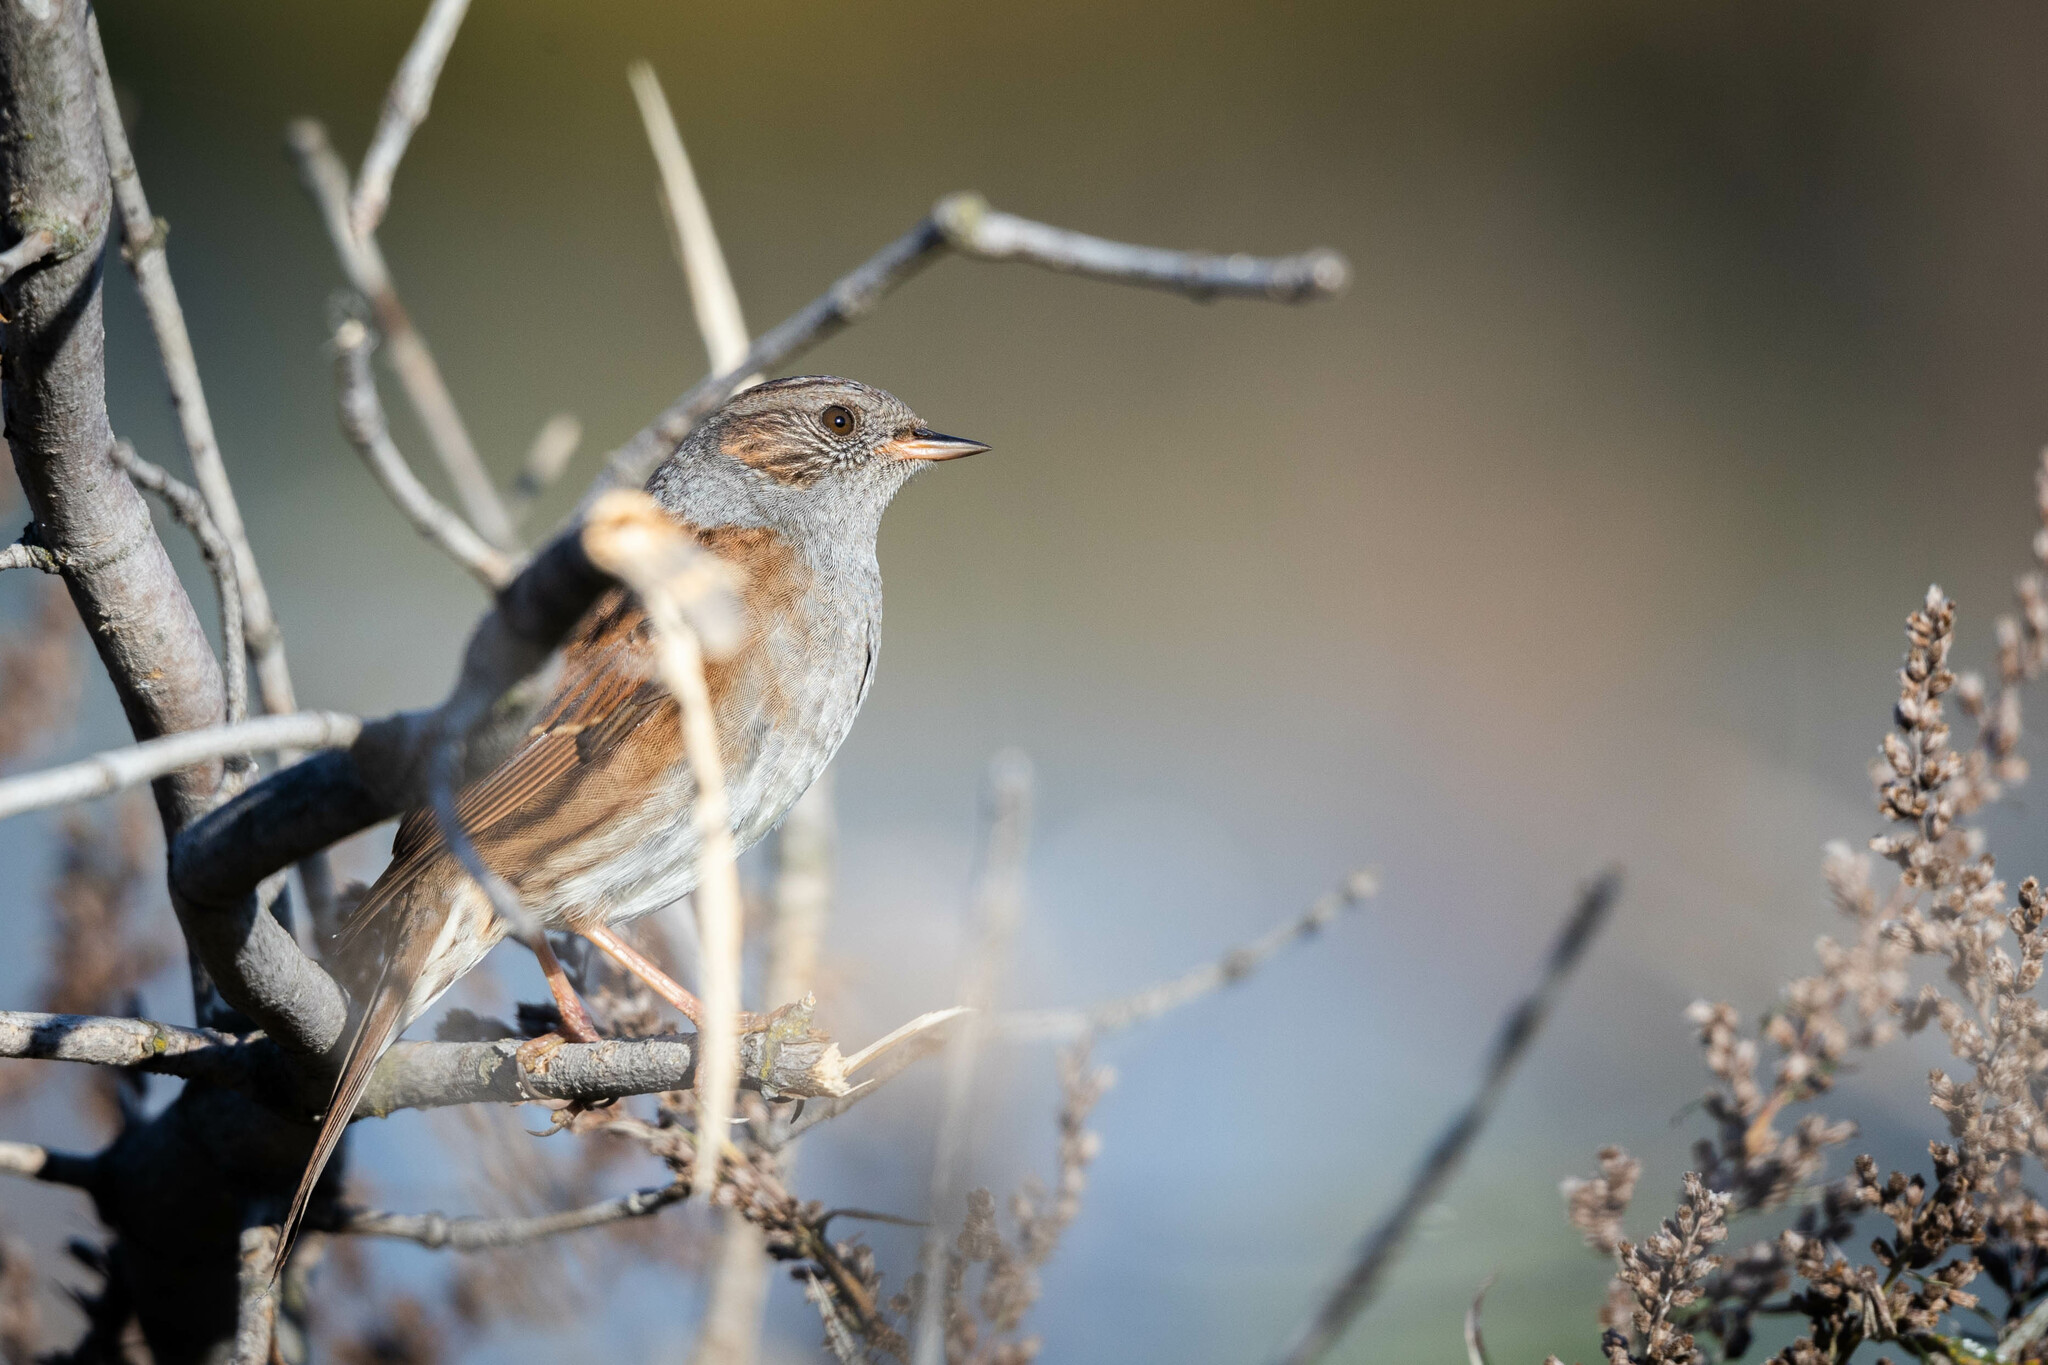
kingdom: Animalia
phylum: Chordata
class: Aves
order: Passeriformes
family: Prunellidae
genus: Prunella
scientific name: Prunella modularis
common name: Dunnock
